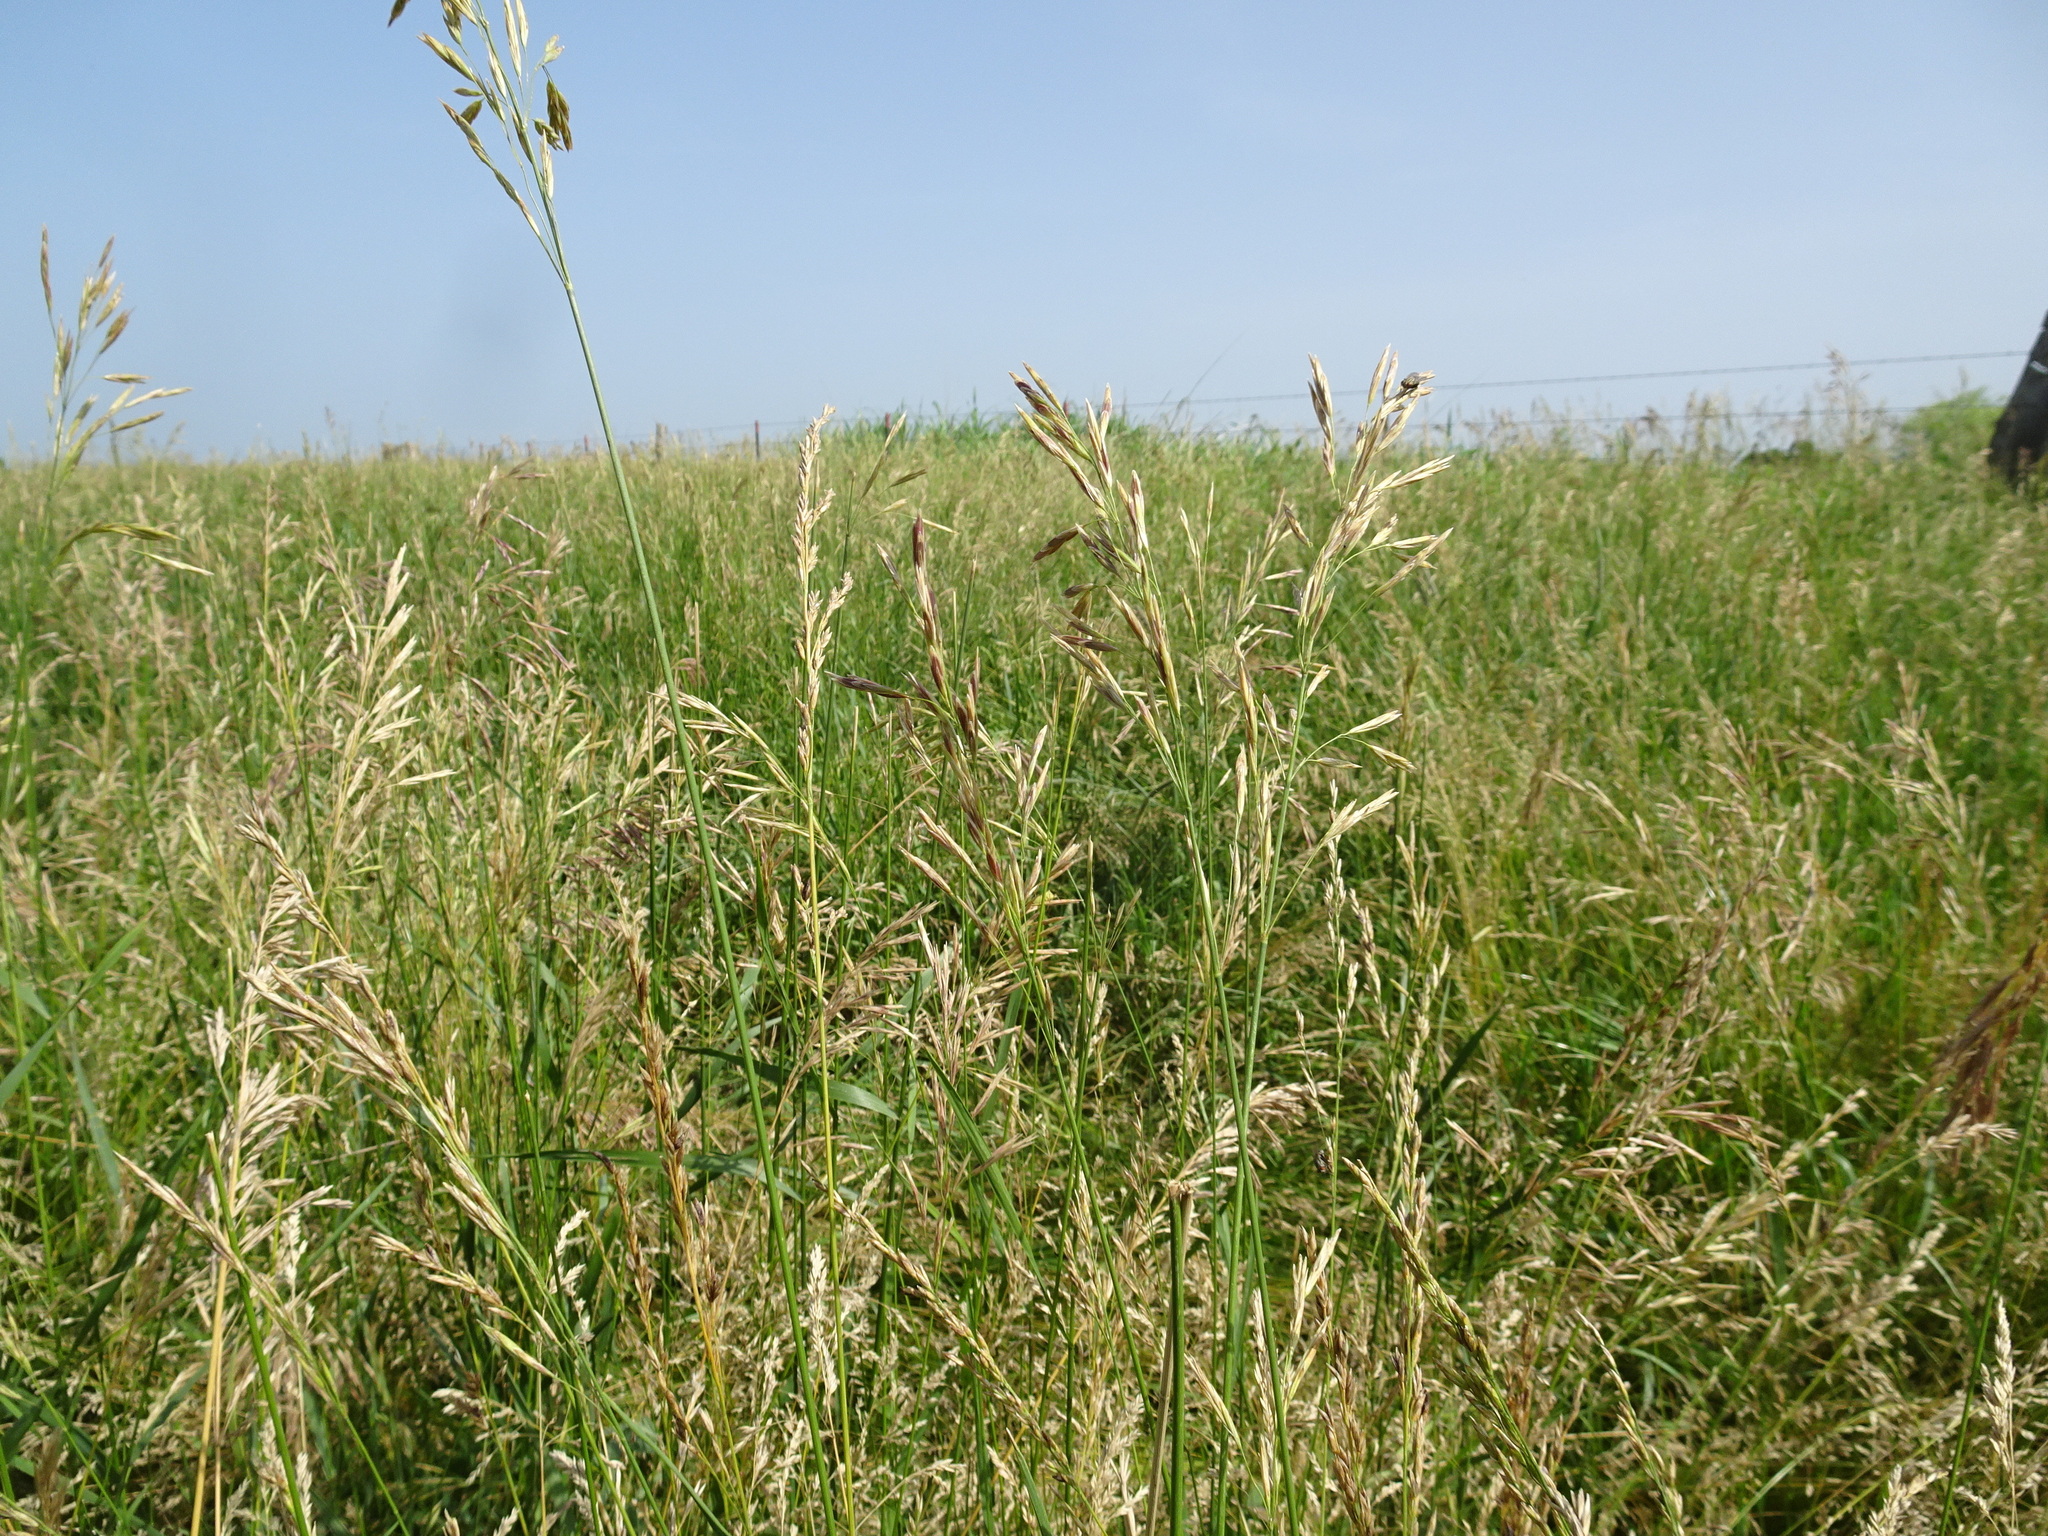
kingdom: Plantae
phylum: Tracheophyta
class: Liliopsida
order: Poales
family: Poaceae
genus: Bromus
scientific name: Bromus inermis
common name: Smooth brome
